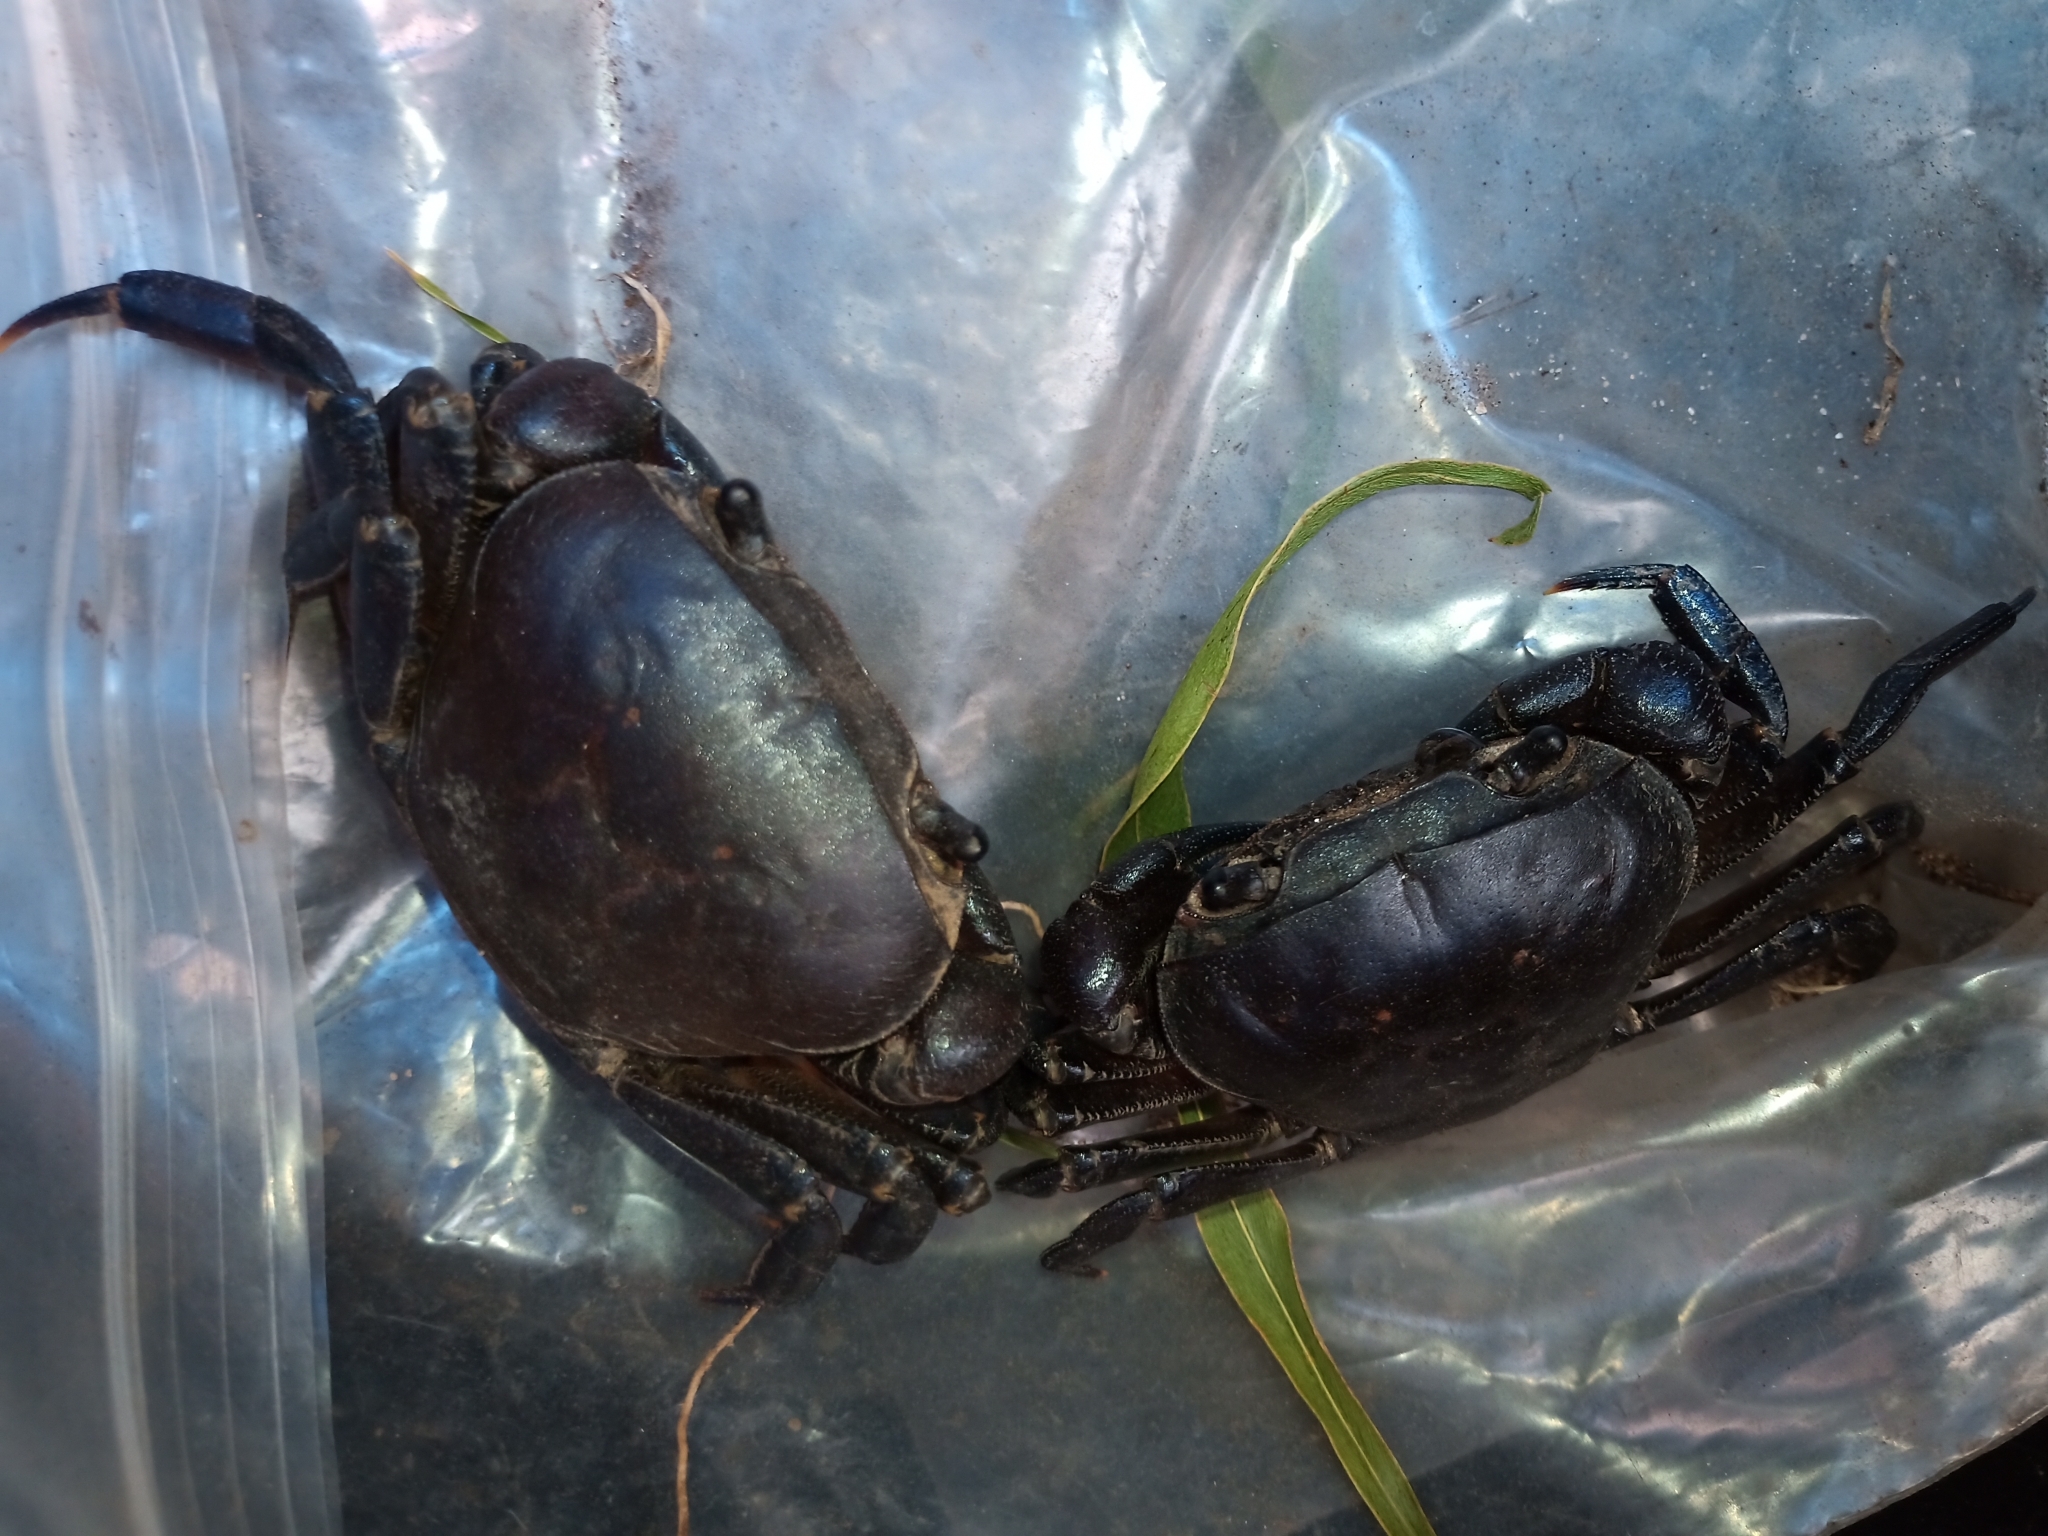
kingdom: Animalia
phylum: Arthropoda
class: Malacostraca
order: Decapoda
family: Potamonautidae
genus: Potamonautes
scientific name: Potamonautes perlatus
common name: Cape river crab
